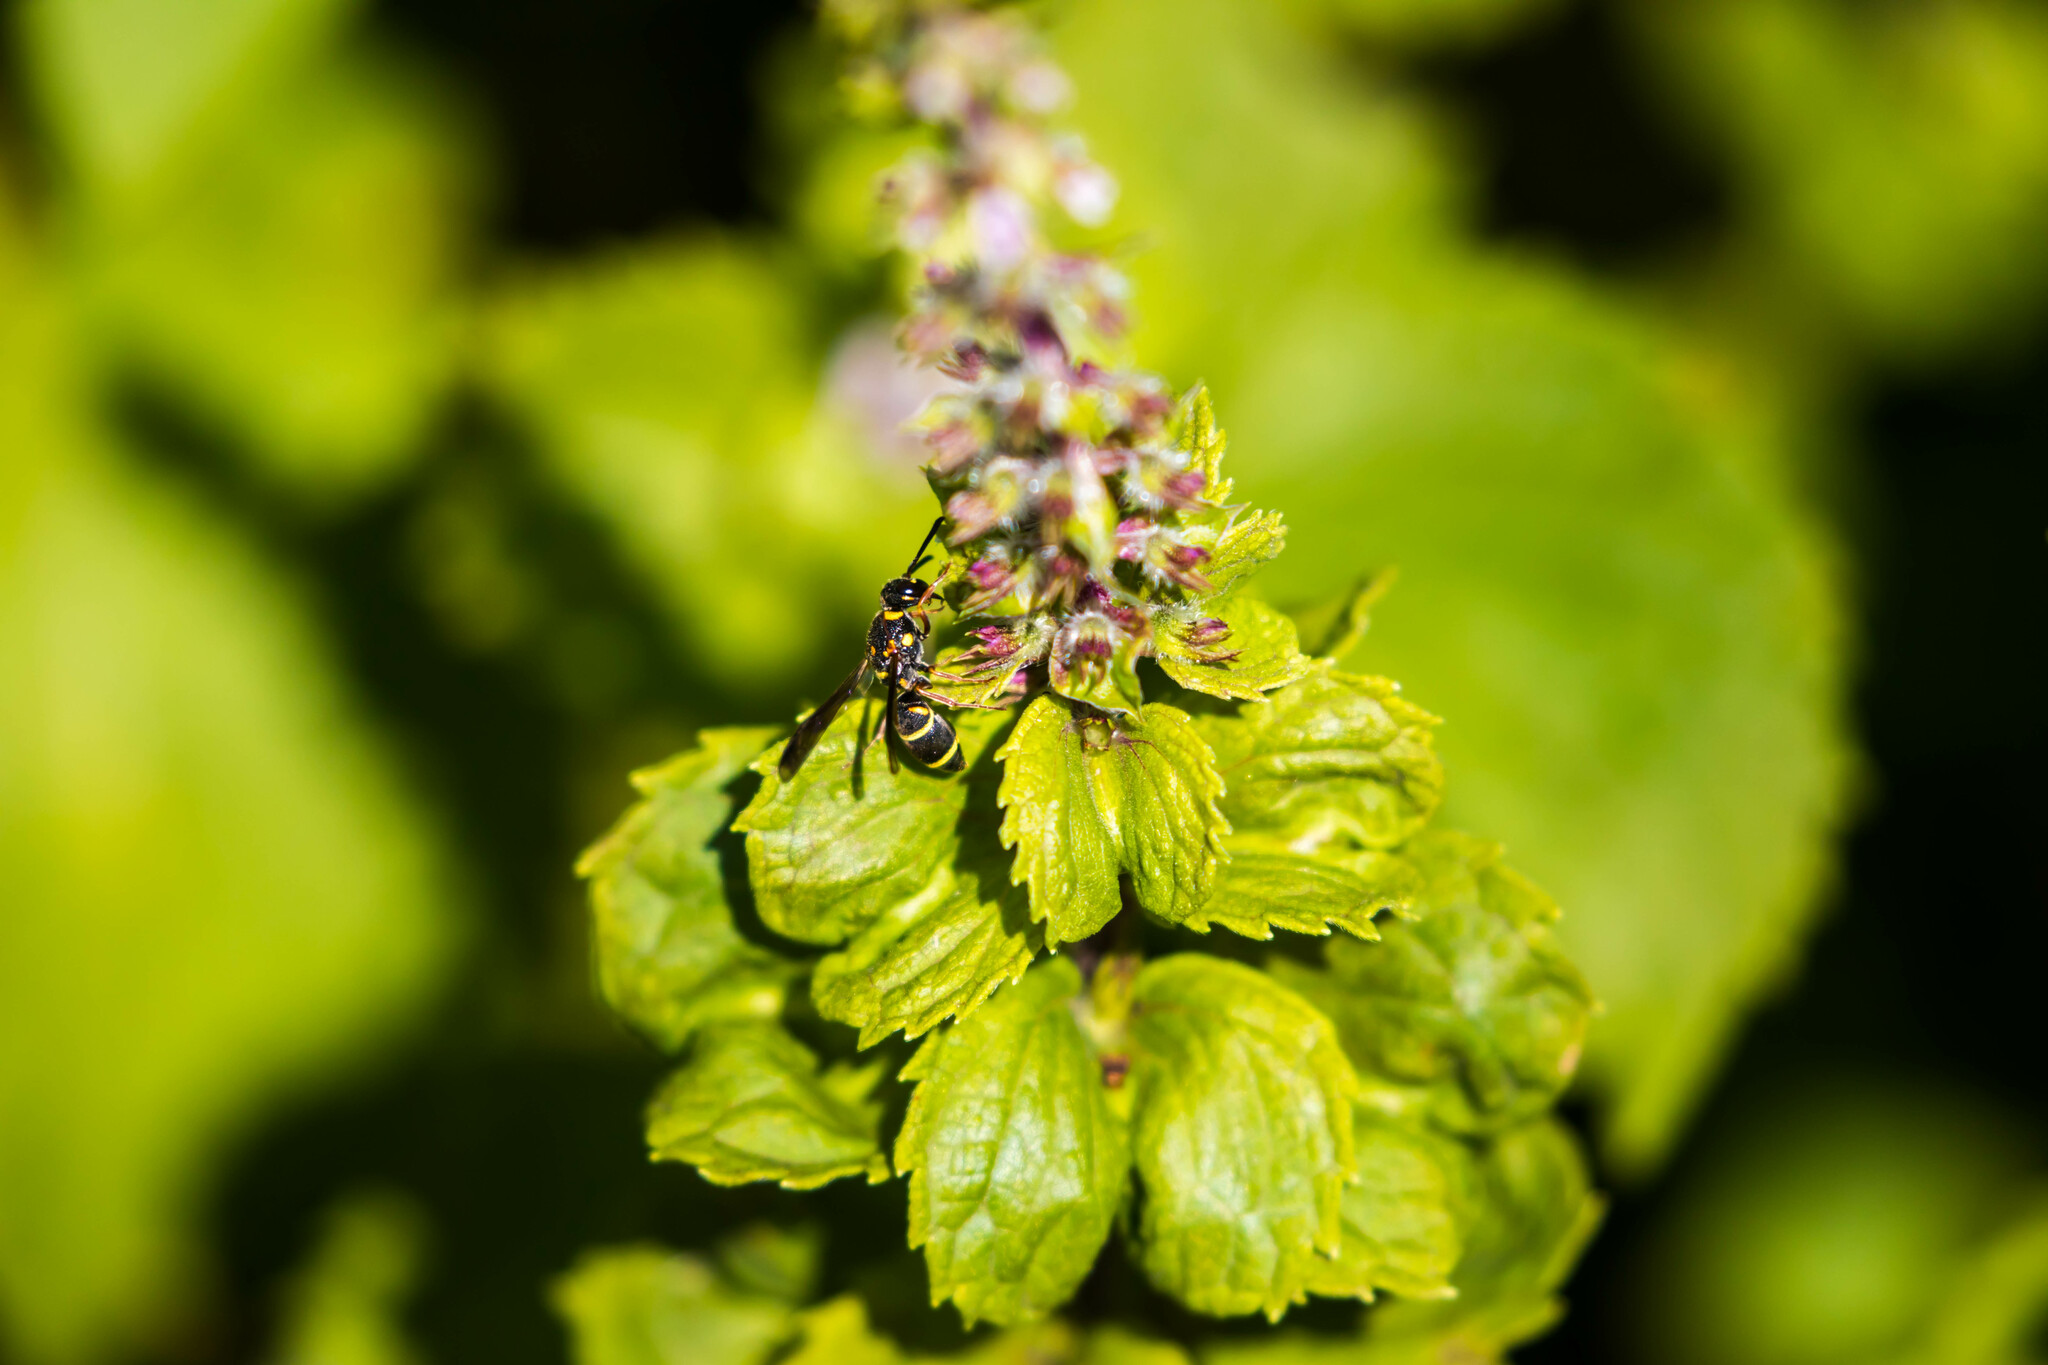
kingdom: Animalia
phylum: Arthropoda
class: Insecta
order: Hymenoptera
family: Eumenidae
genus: Parancistrocerus
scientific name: Parancistrocerus fulvipes
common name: Potter wasp
